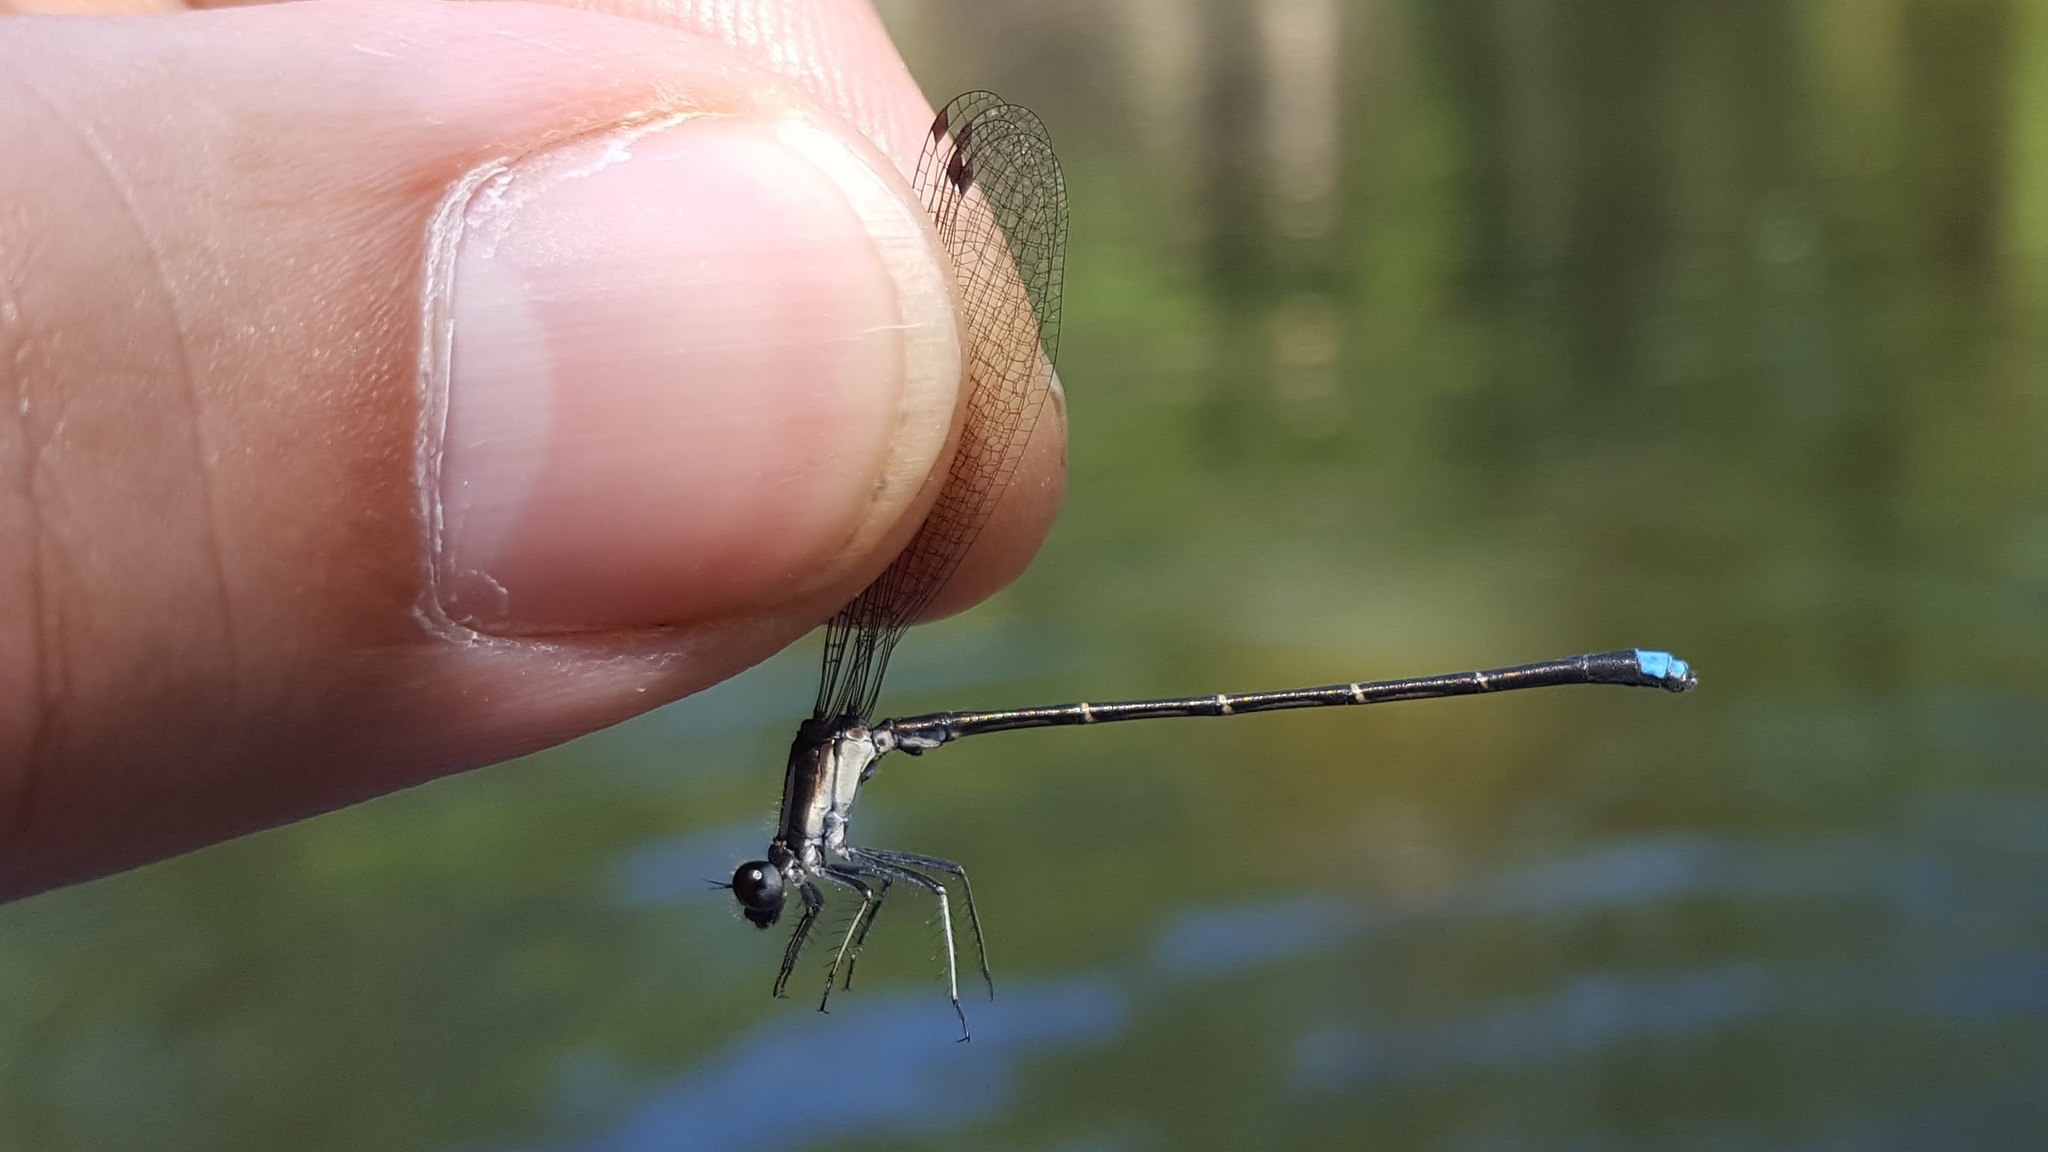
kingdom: Animalia
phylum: Arthropoda
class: Insecta
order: Odonata
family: Coenagrionidae
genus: Argia
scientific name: Argia tibialis
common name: Blue-tipped dancer
